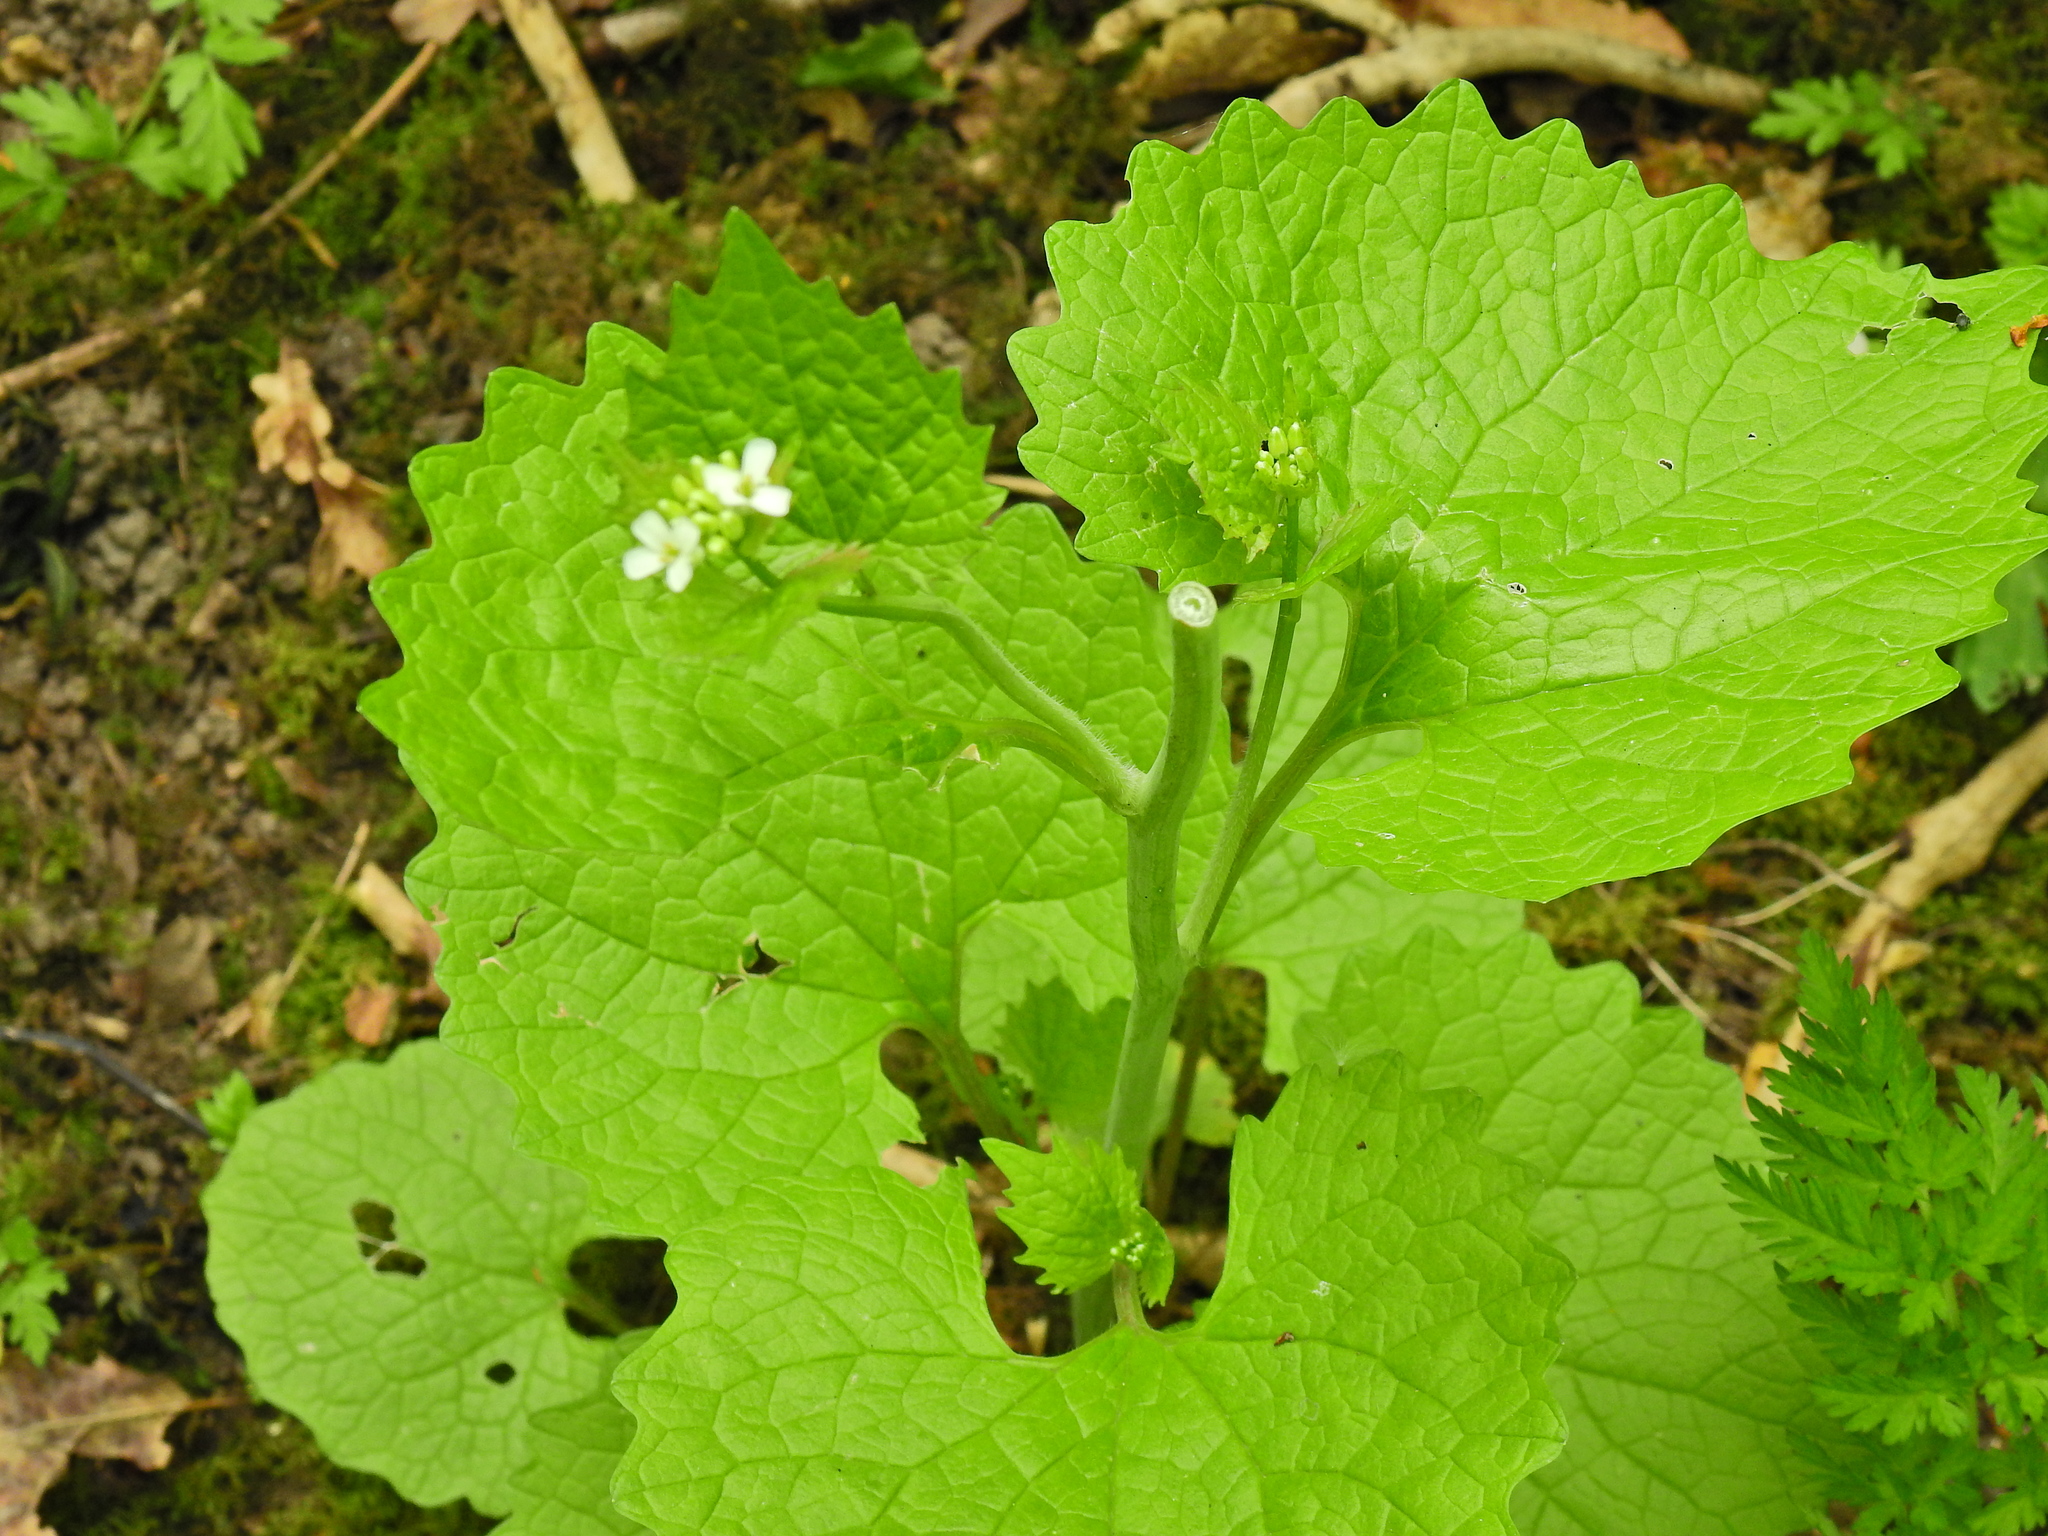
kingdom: Plantae
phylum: Tracheophyta
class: Magnoliopsida
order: Brassicales
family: Brassicaceae
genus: Alliaria
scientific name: Alliaria petiolata
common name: Garlic mustard
